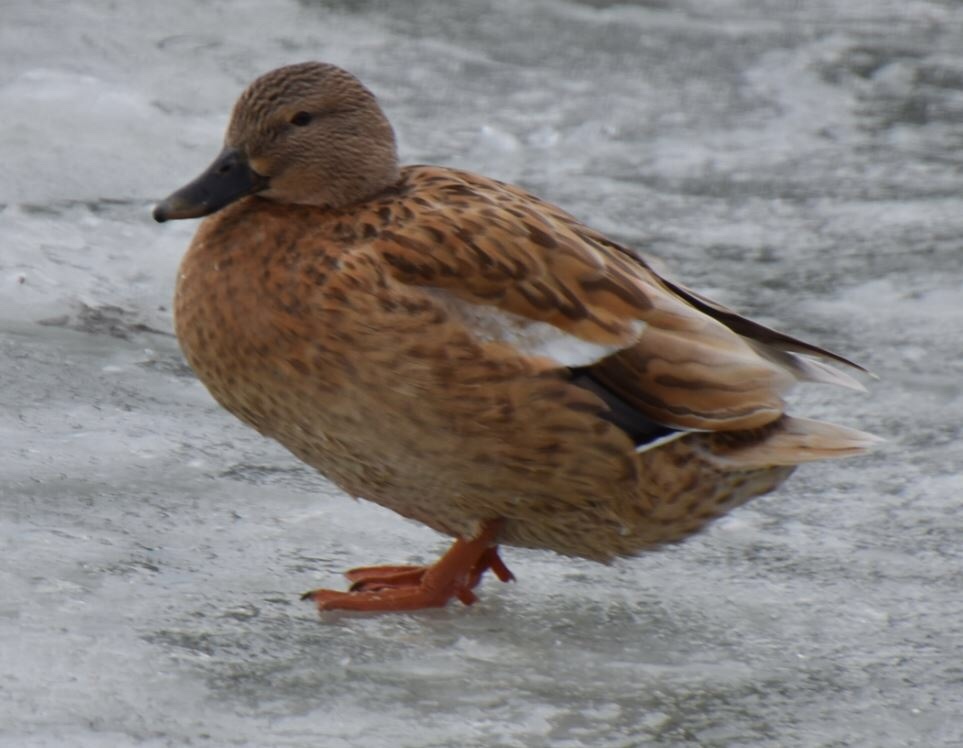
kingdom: Animalia
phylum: Chordata
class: Aves
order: Anseriformes
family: Anatidae
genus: Anas
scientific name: Anas platyrhynchos
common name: Mallard
